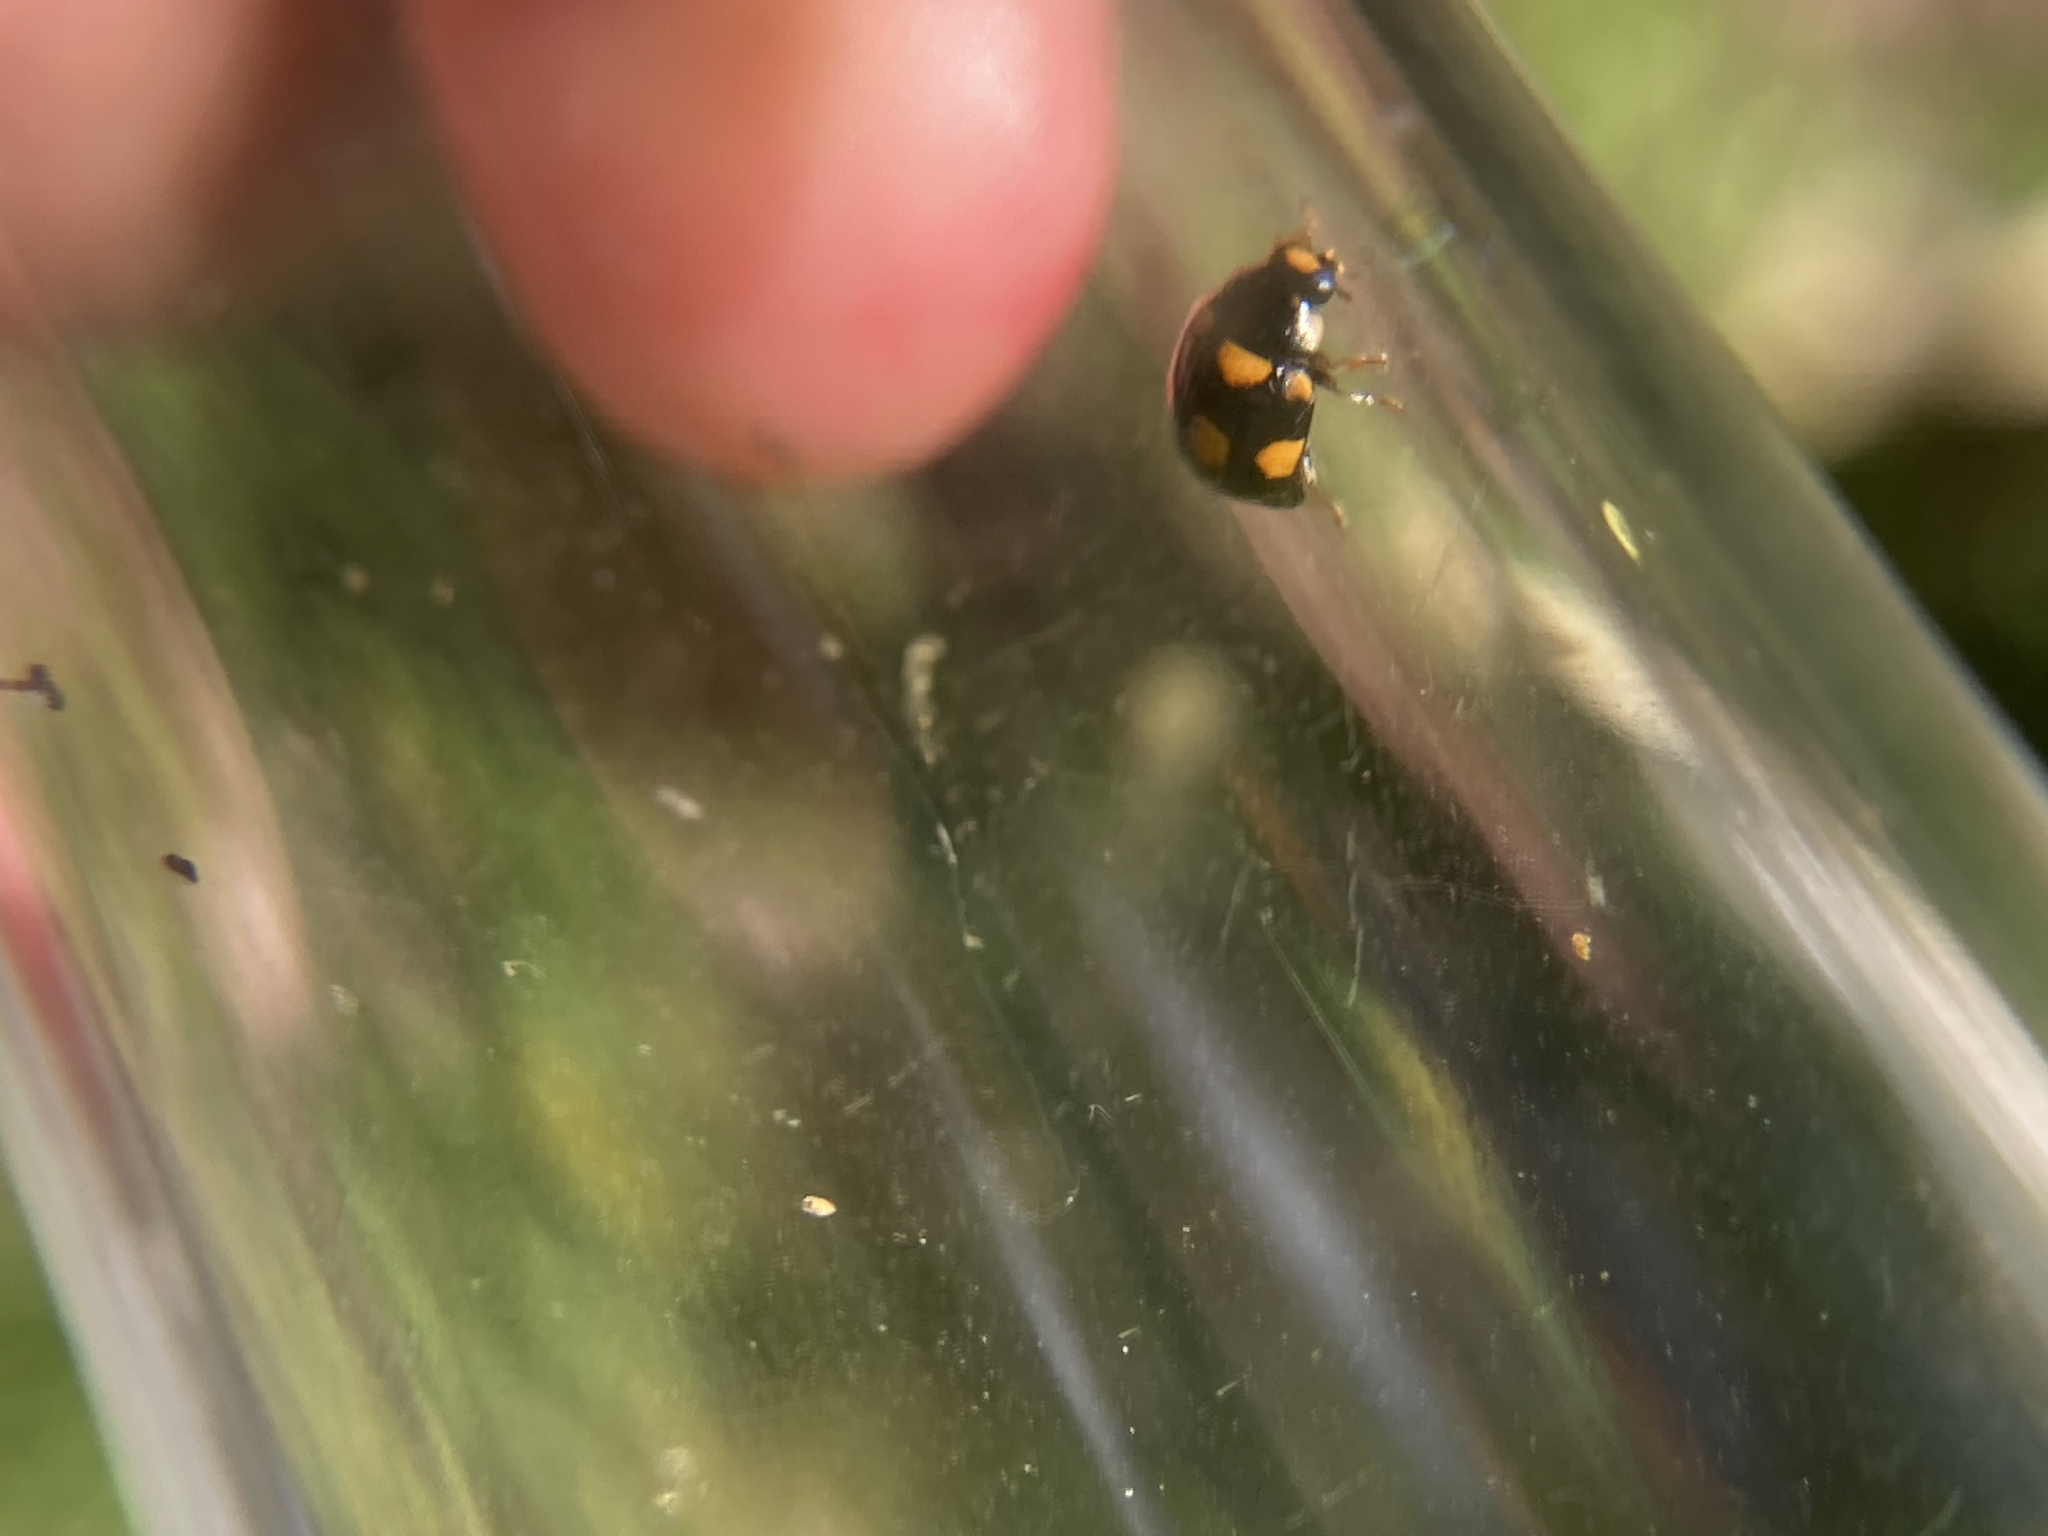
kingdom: Animalia
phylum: Arthropoda
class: Insecta
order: Coleoptera
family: Coccinellidae
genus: Brachiacantha
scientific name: Brachiacantha ursina
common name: Ursine spurleg lady beetle
